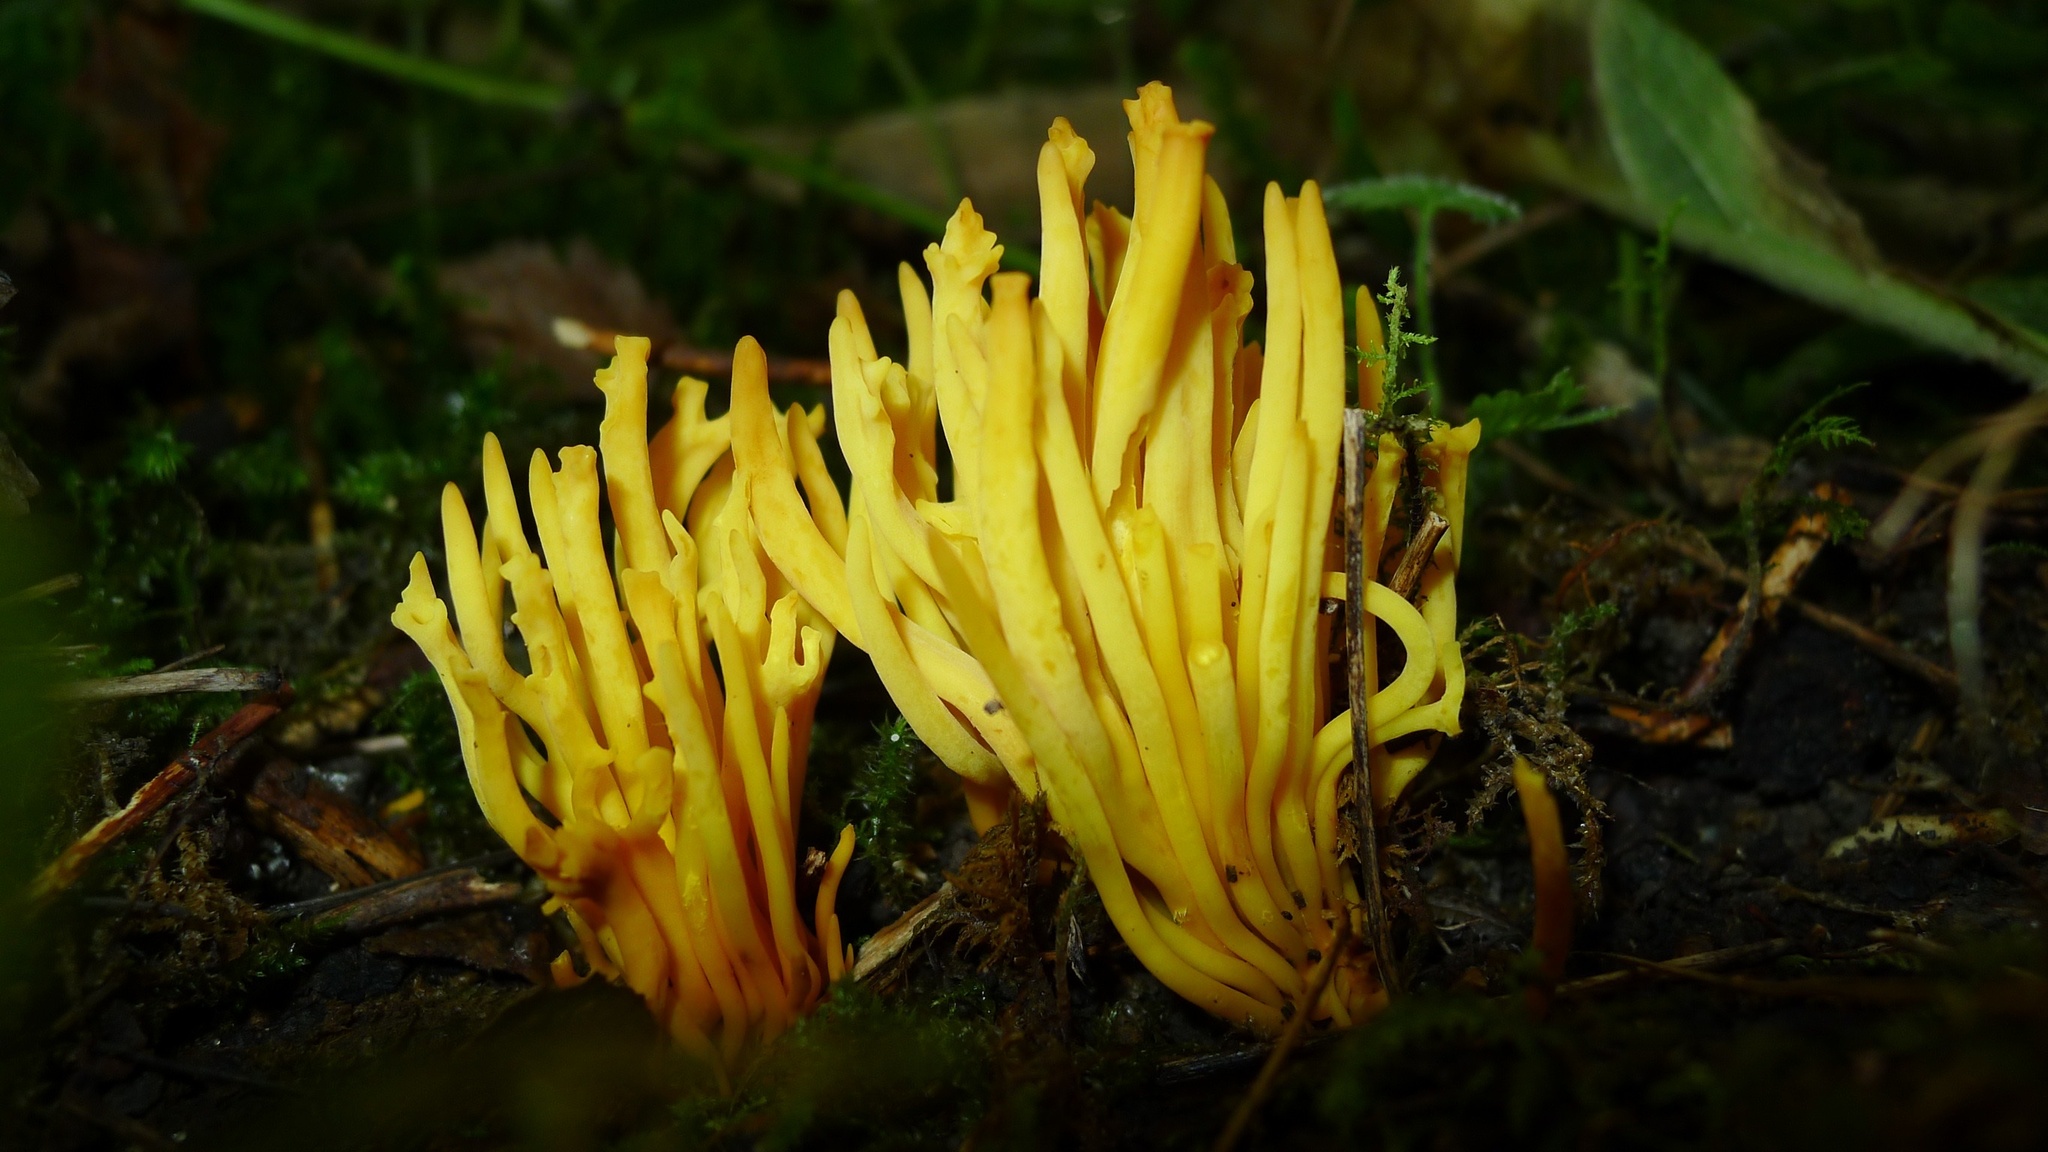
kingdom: Fungi
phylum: Basidiomycota
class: Agaricomycetes
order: Agaricales
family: Clavariaceae
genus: Clavulinopsis
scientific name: Clavulinopsis fusiformis
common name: Golden spindles
